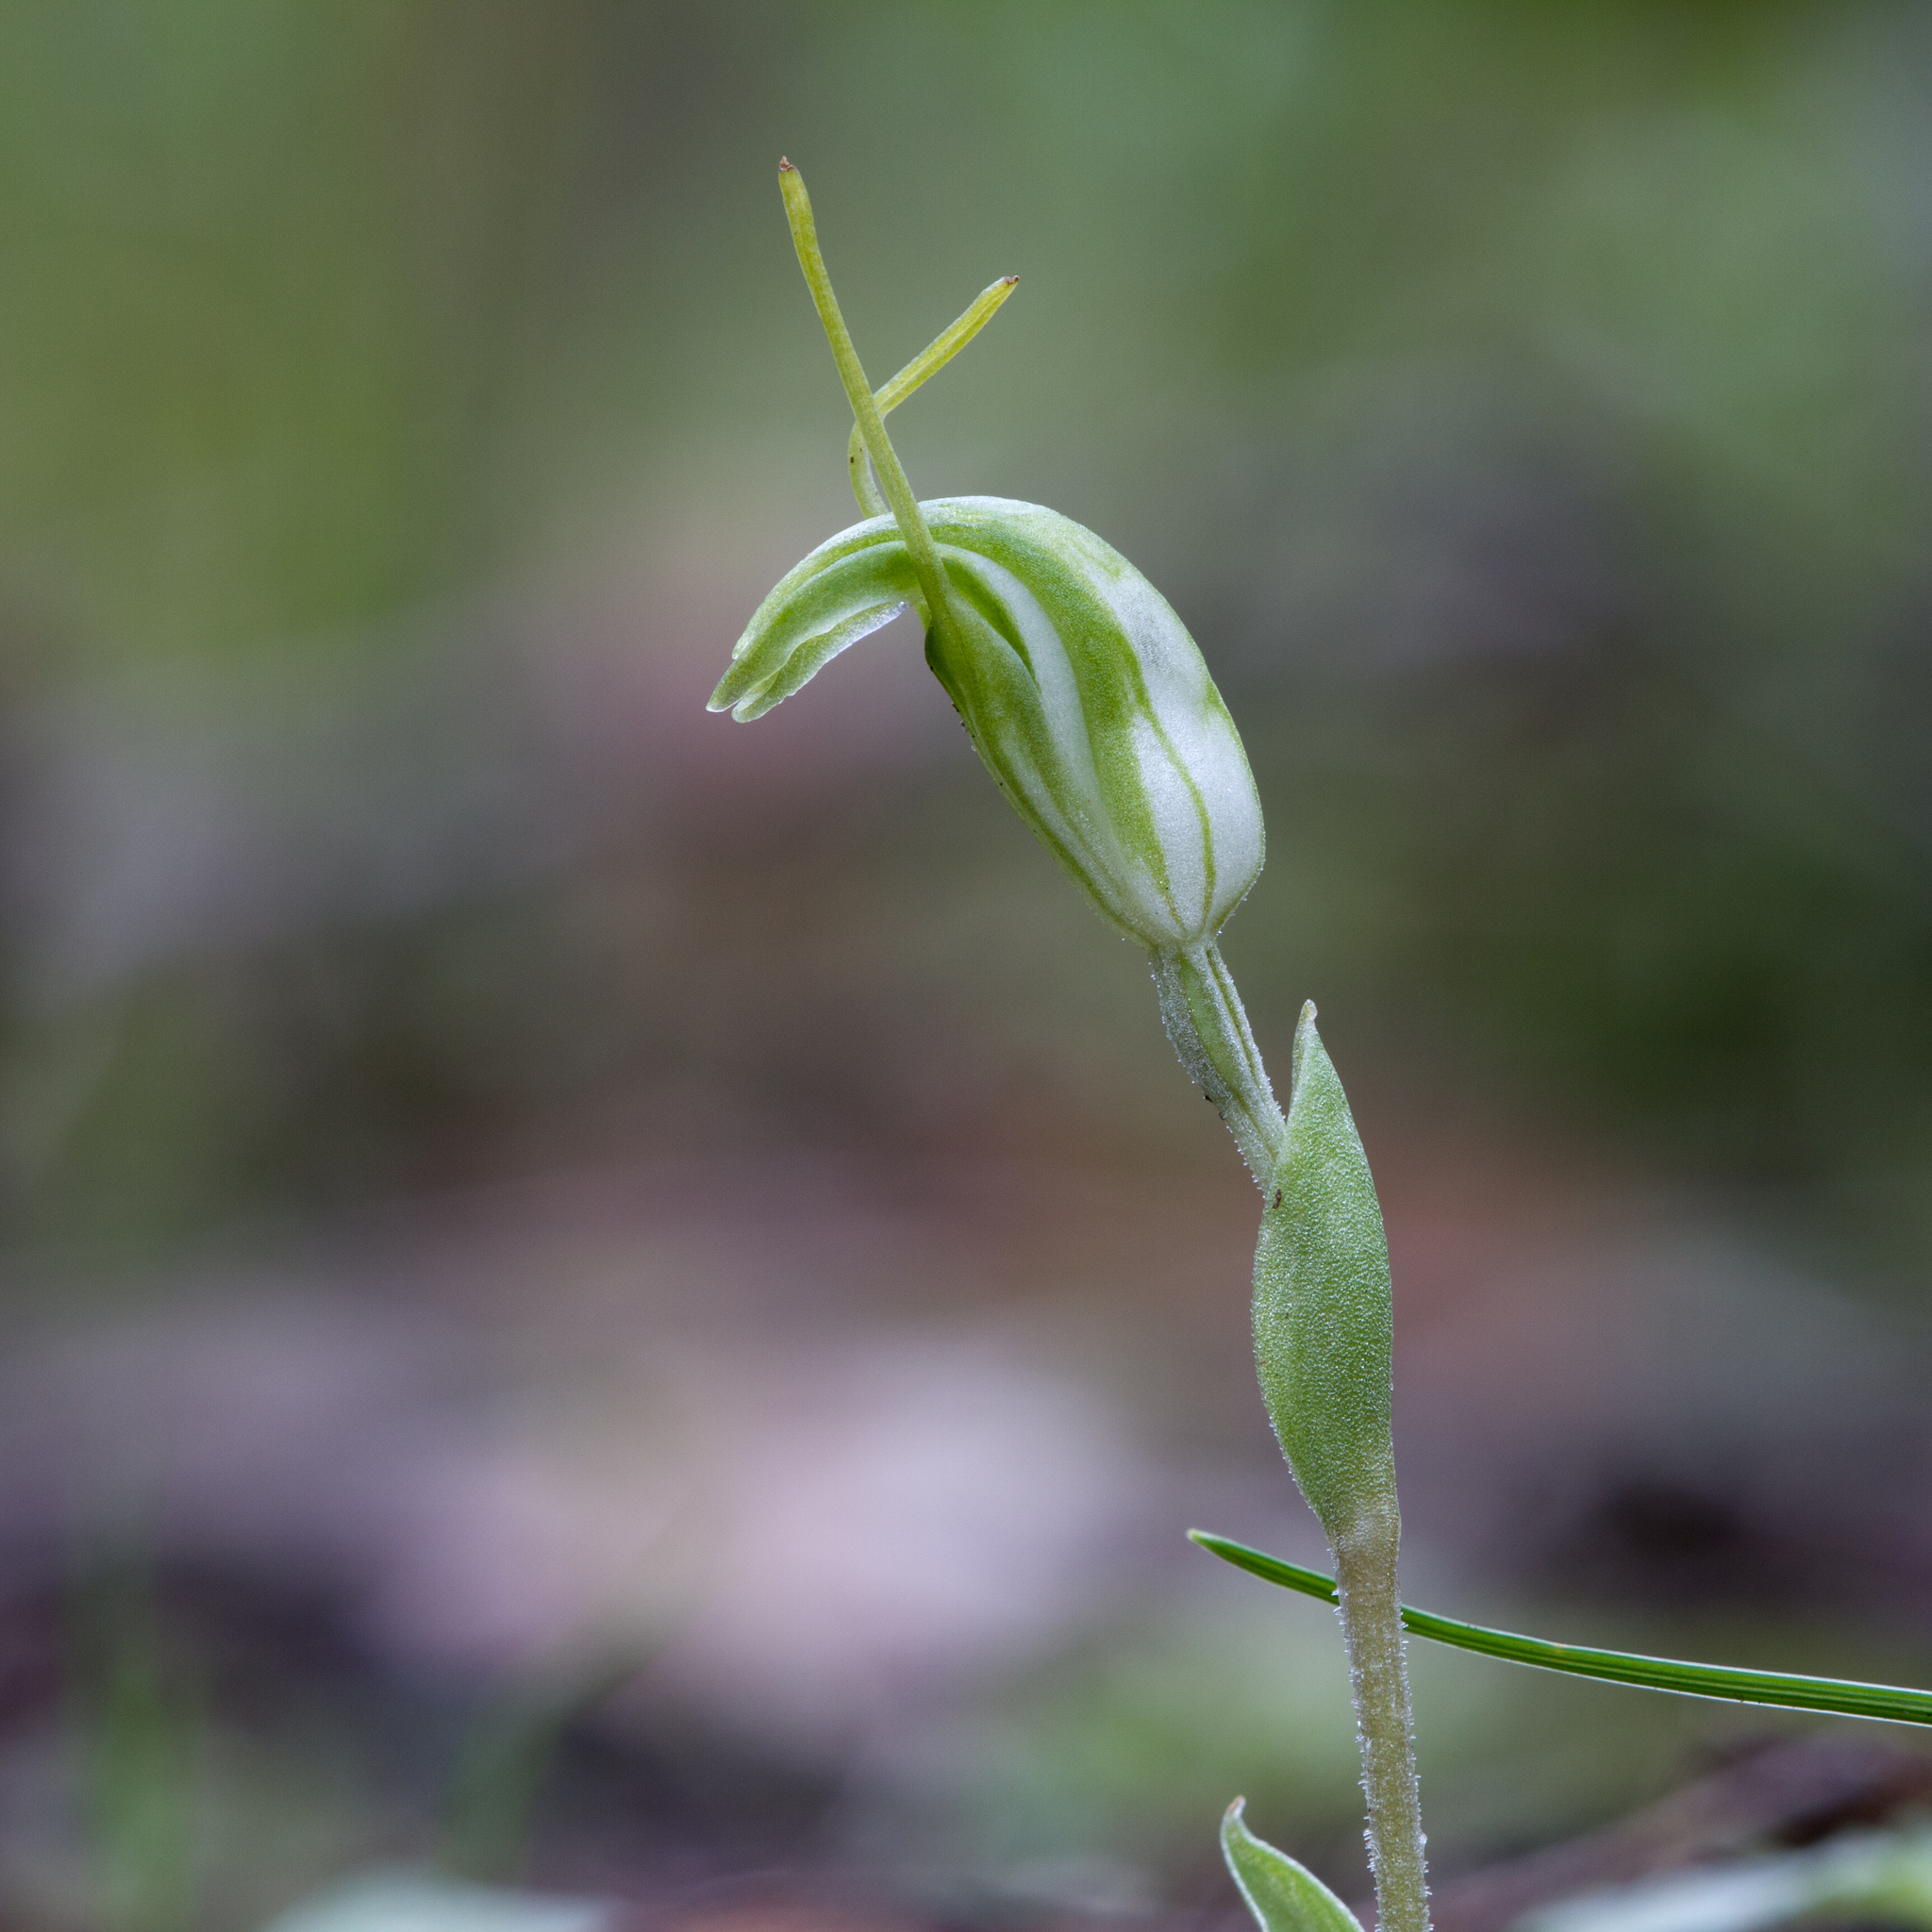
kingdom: Plantae
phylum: Tracheophyta
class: Liliopsida
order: Asparagales
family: Orchidaceae
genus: Pterostylis
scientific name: Pterostylis nana
